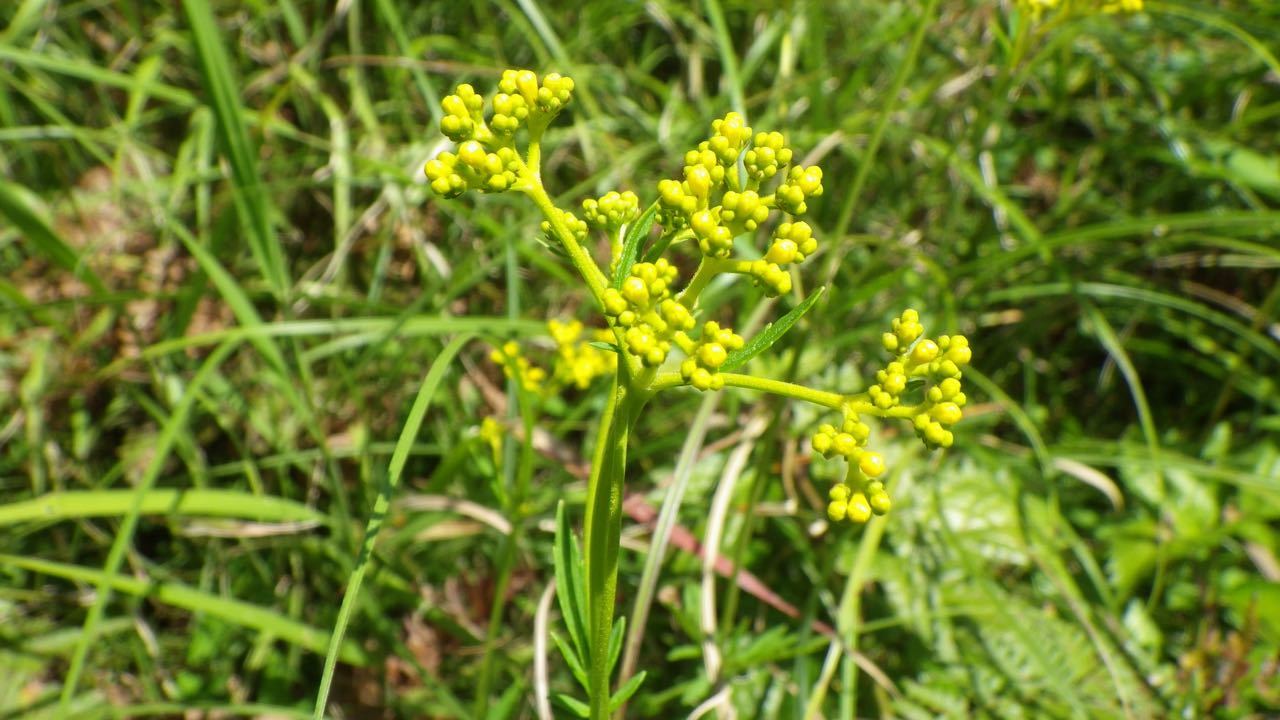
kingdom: Plantae
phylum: Tracheophyta
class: Magnoliopsida
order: Dipsacales
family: Caprifoliaceae
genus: Patrinia
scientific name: Patrinia scabiosifolia
